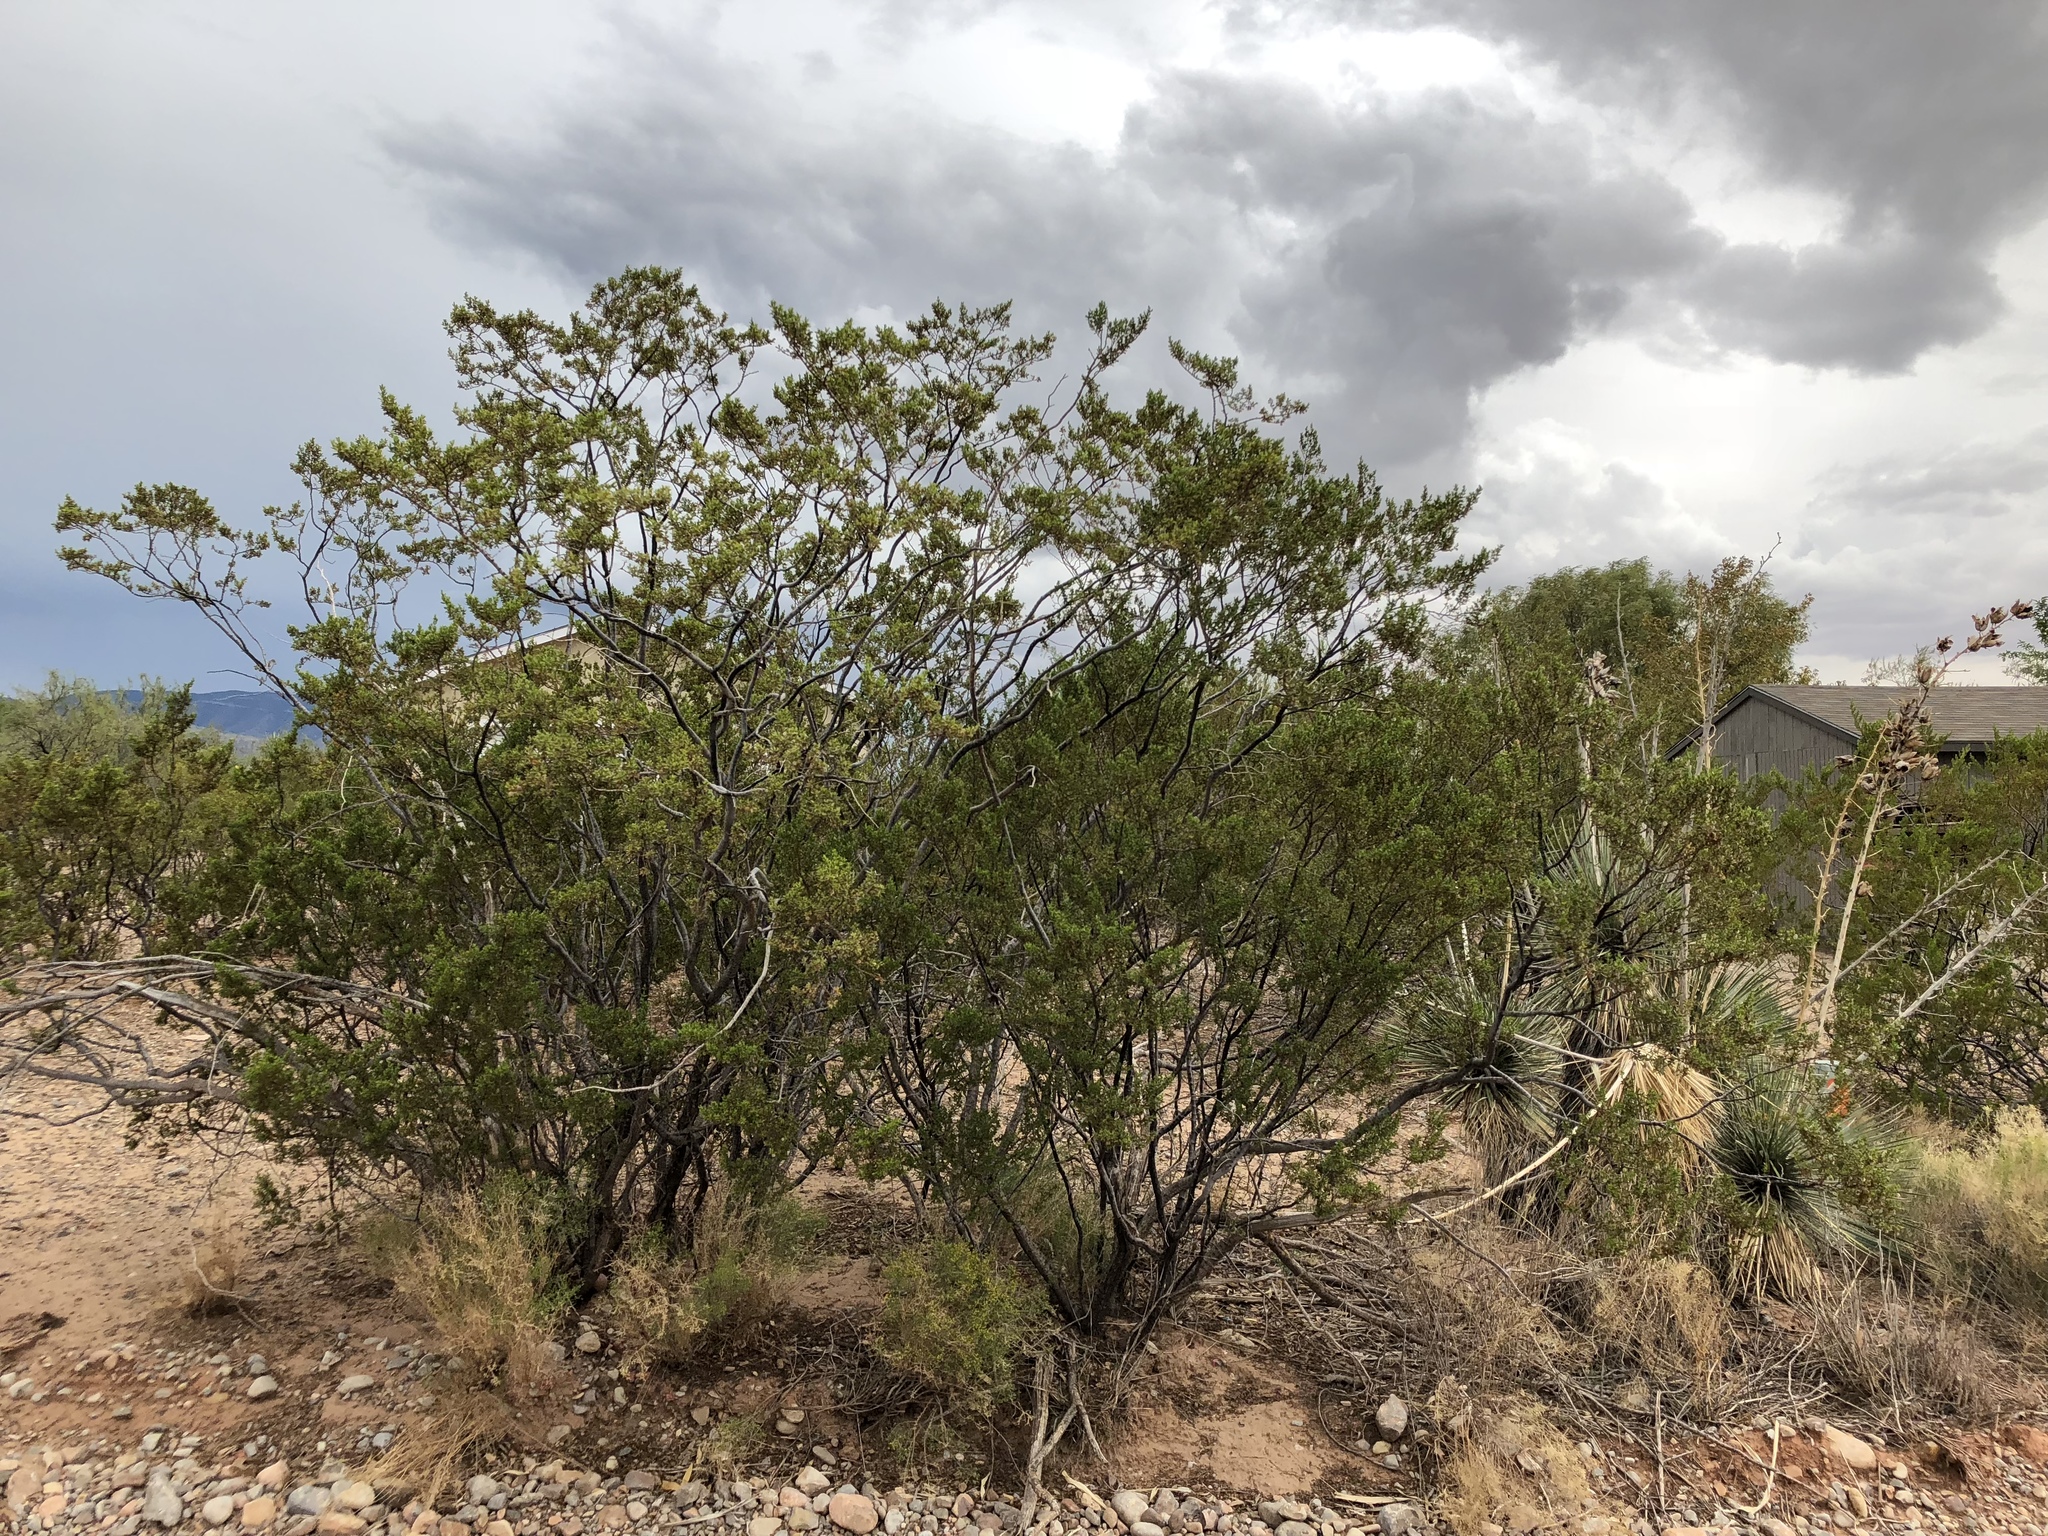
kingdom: Plantae
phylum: Tracheophyta
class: Magnoliopsida
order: Zygophyllales
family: Zygophyllaceae
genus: Larrea
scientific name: Larrea tridentata
